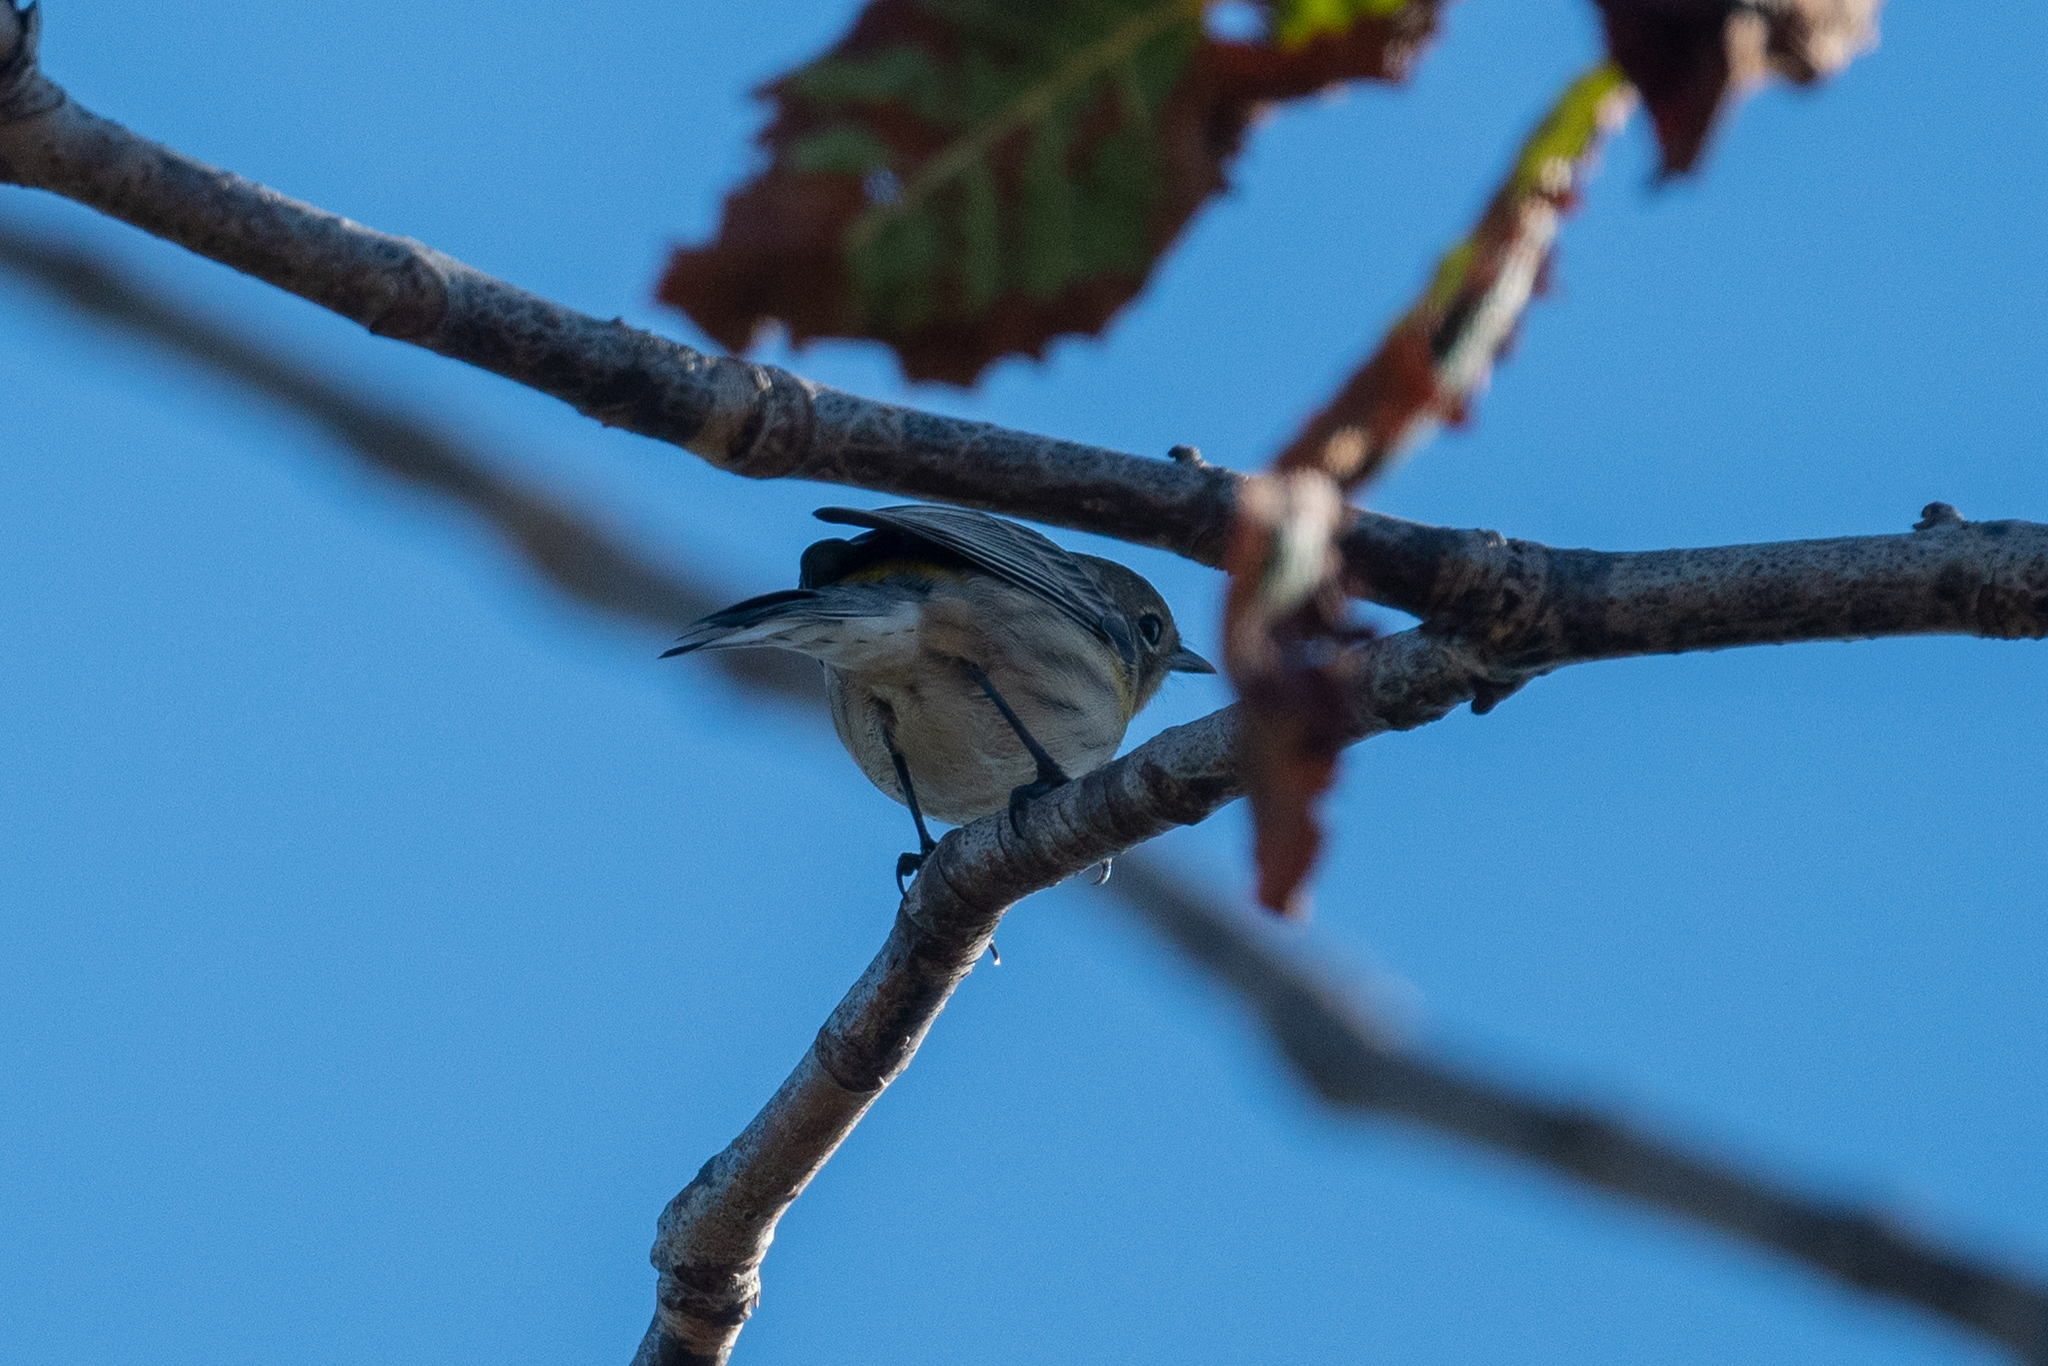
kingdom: Animalia
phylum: Chordata
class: Aves
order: Passeriformes
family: Parulidae
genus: Setophaga
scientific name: Setophaga coronata
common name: Myrtle warbler
